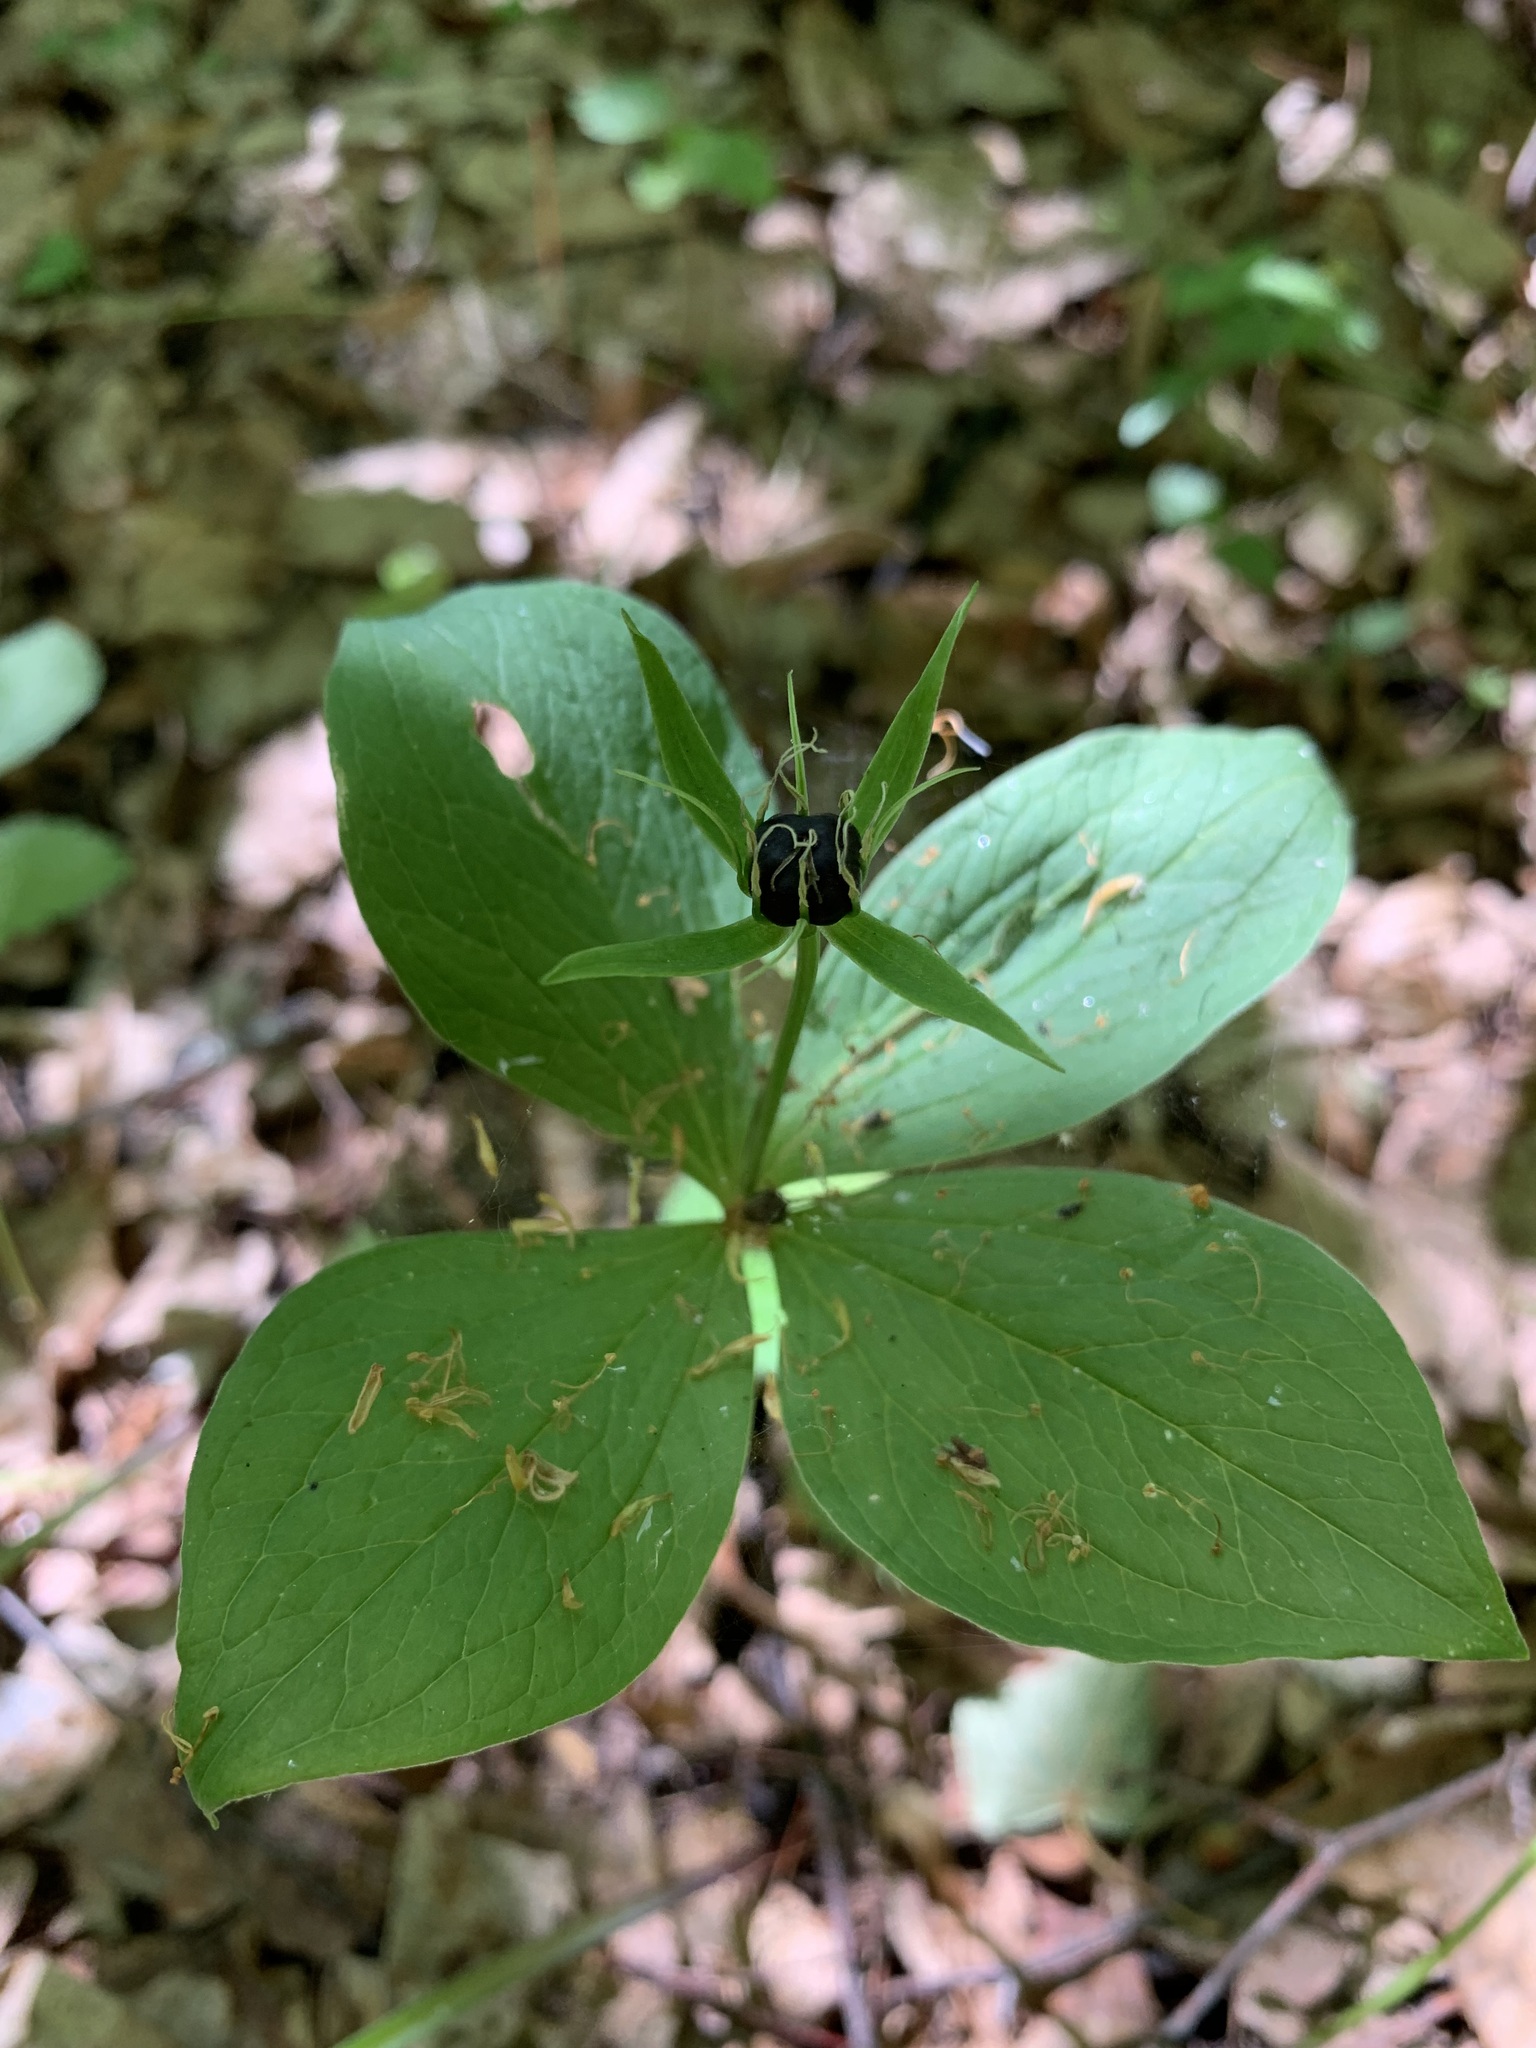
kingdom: Plantae
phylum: Tracheophyta
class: Liliopsida
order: Liliales
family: Melanthiaceae
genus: Paris
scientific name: Paris quadrifolia
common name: Herb-paris
